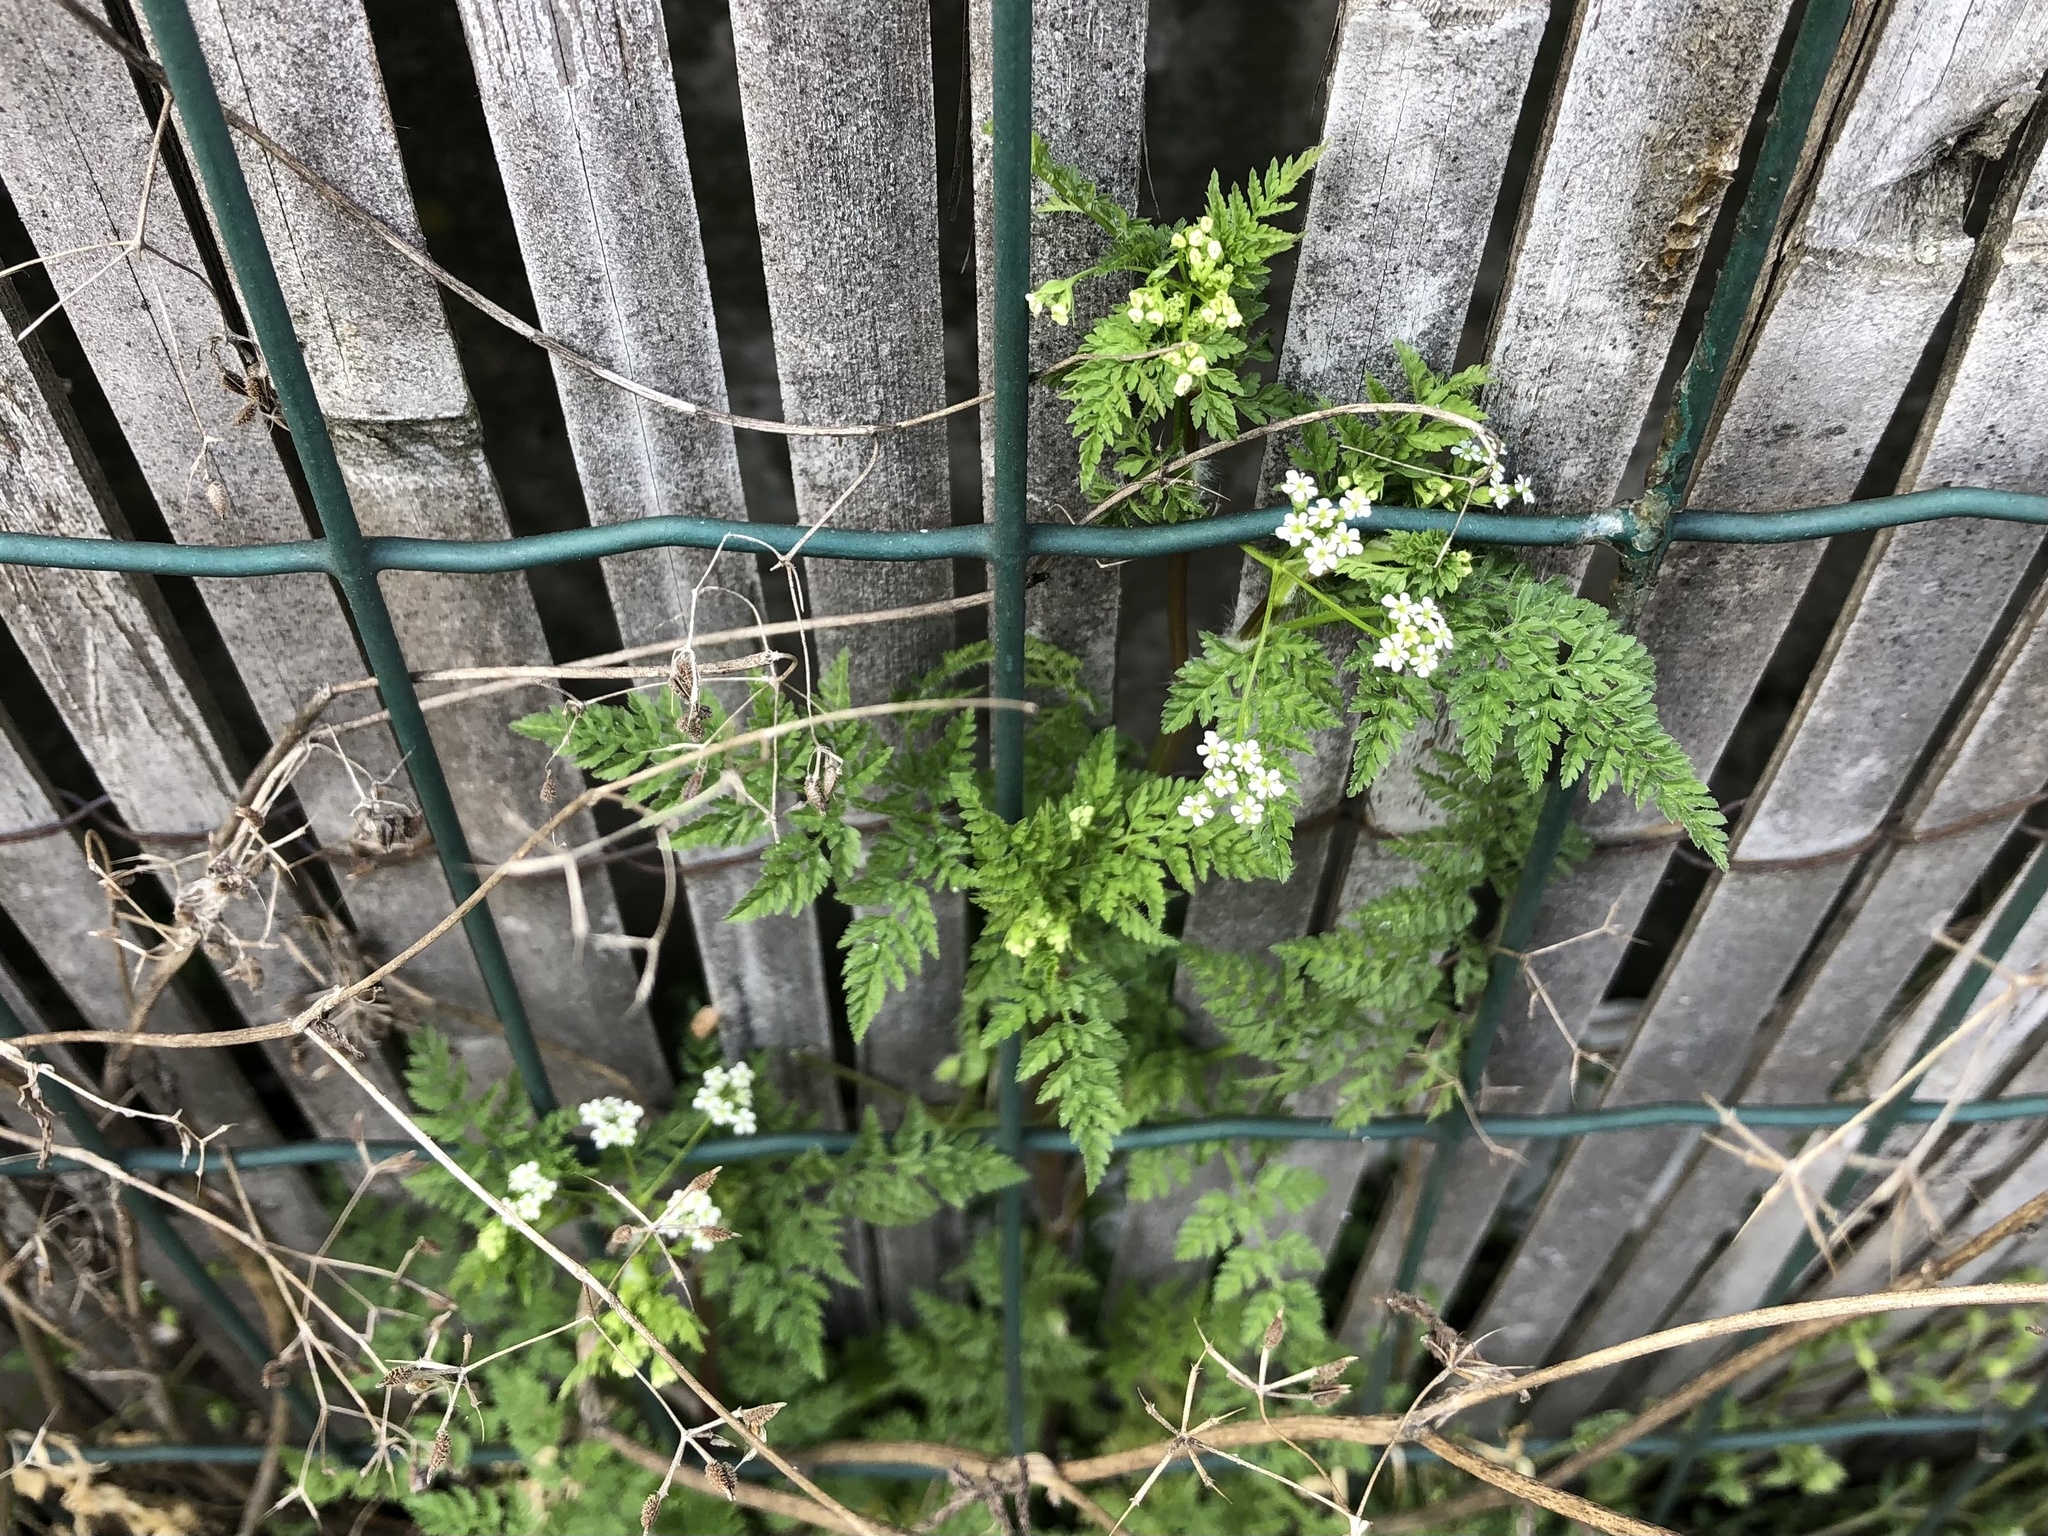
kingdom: Plantae
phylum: Tracheophyta
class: Magnoliopsida
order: Apiales
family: Apiaceae
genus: Anthriscus
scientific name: Anthriscus caucalis
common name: Bur chervil
